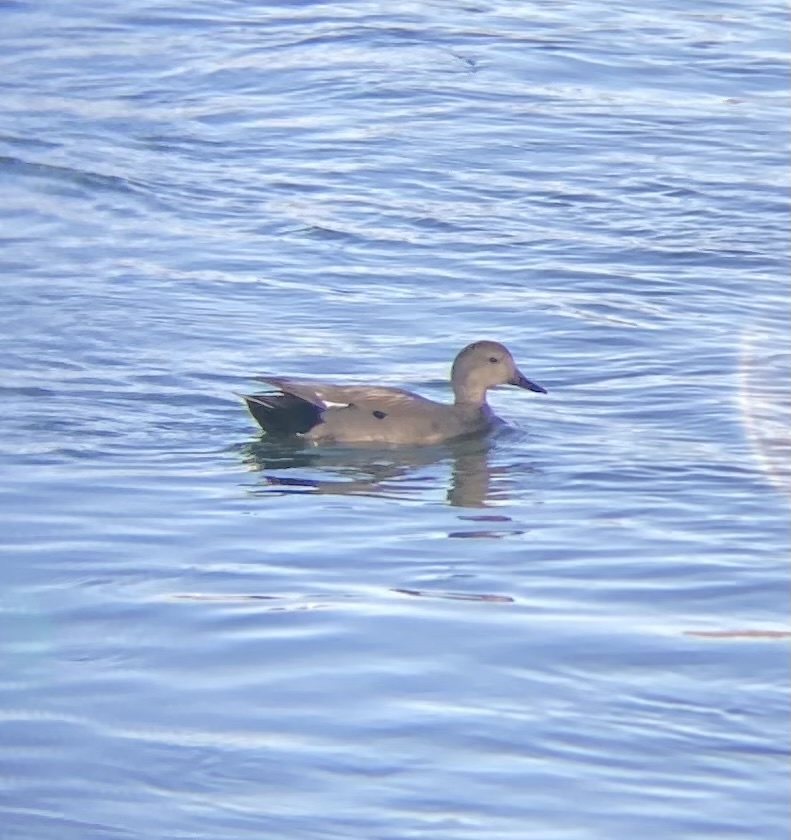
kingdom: Animalia
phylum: Chordata
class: Aves
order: Anseriformes
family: Anatidae
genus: Mareca
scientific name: Mareca strepera
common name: Gadwall
